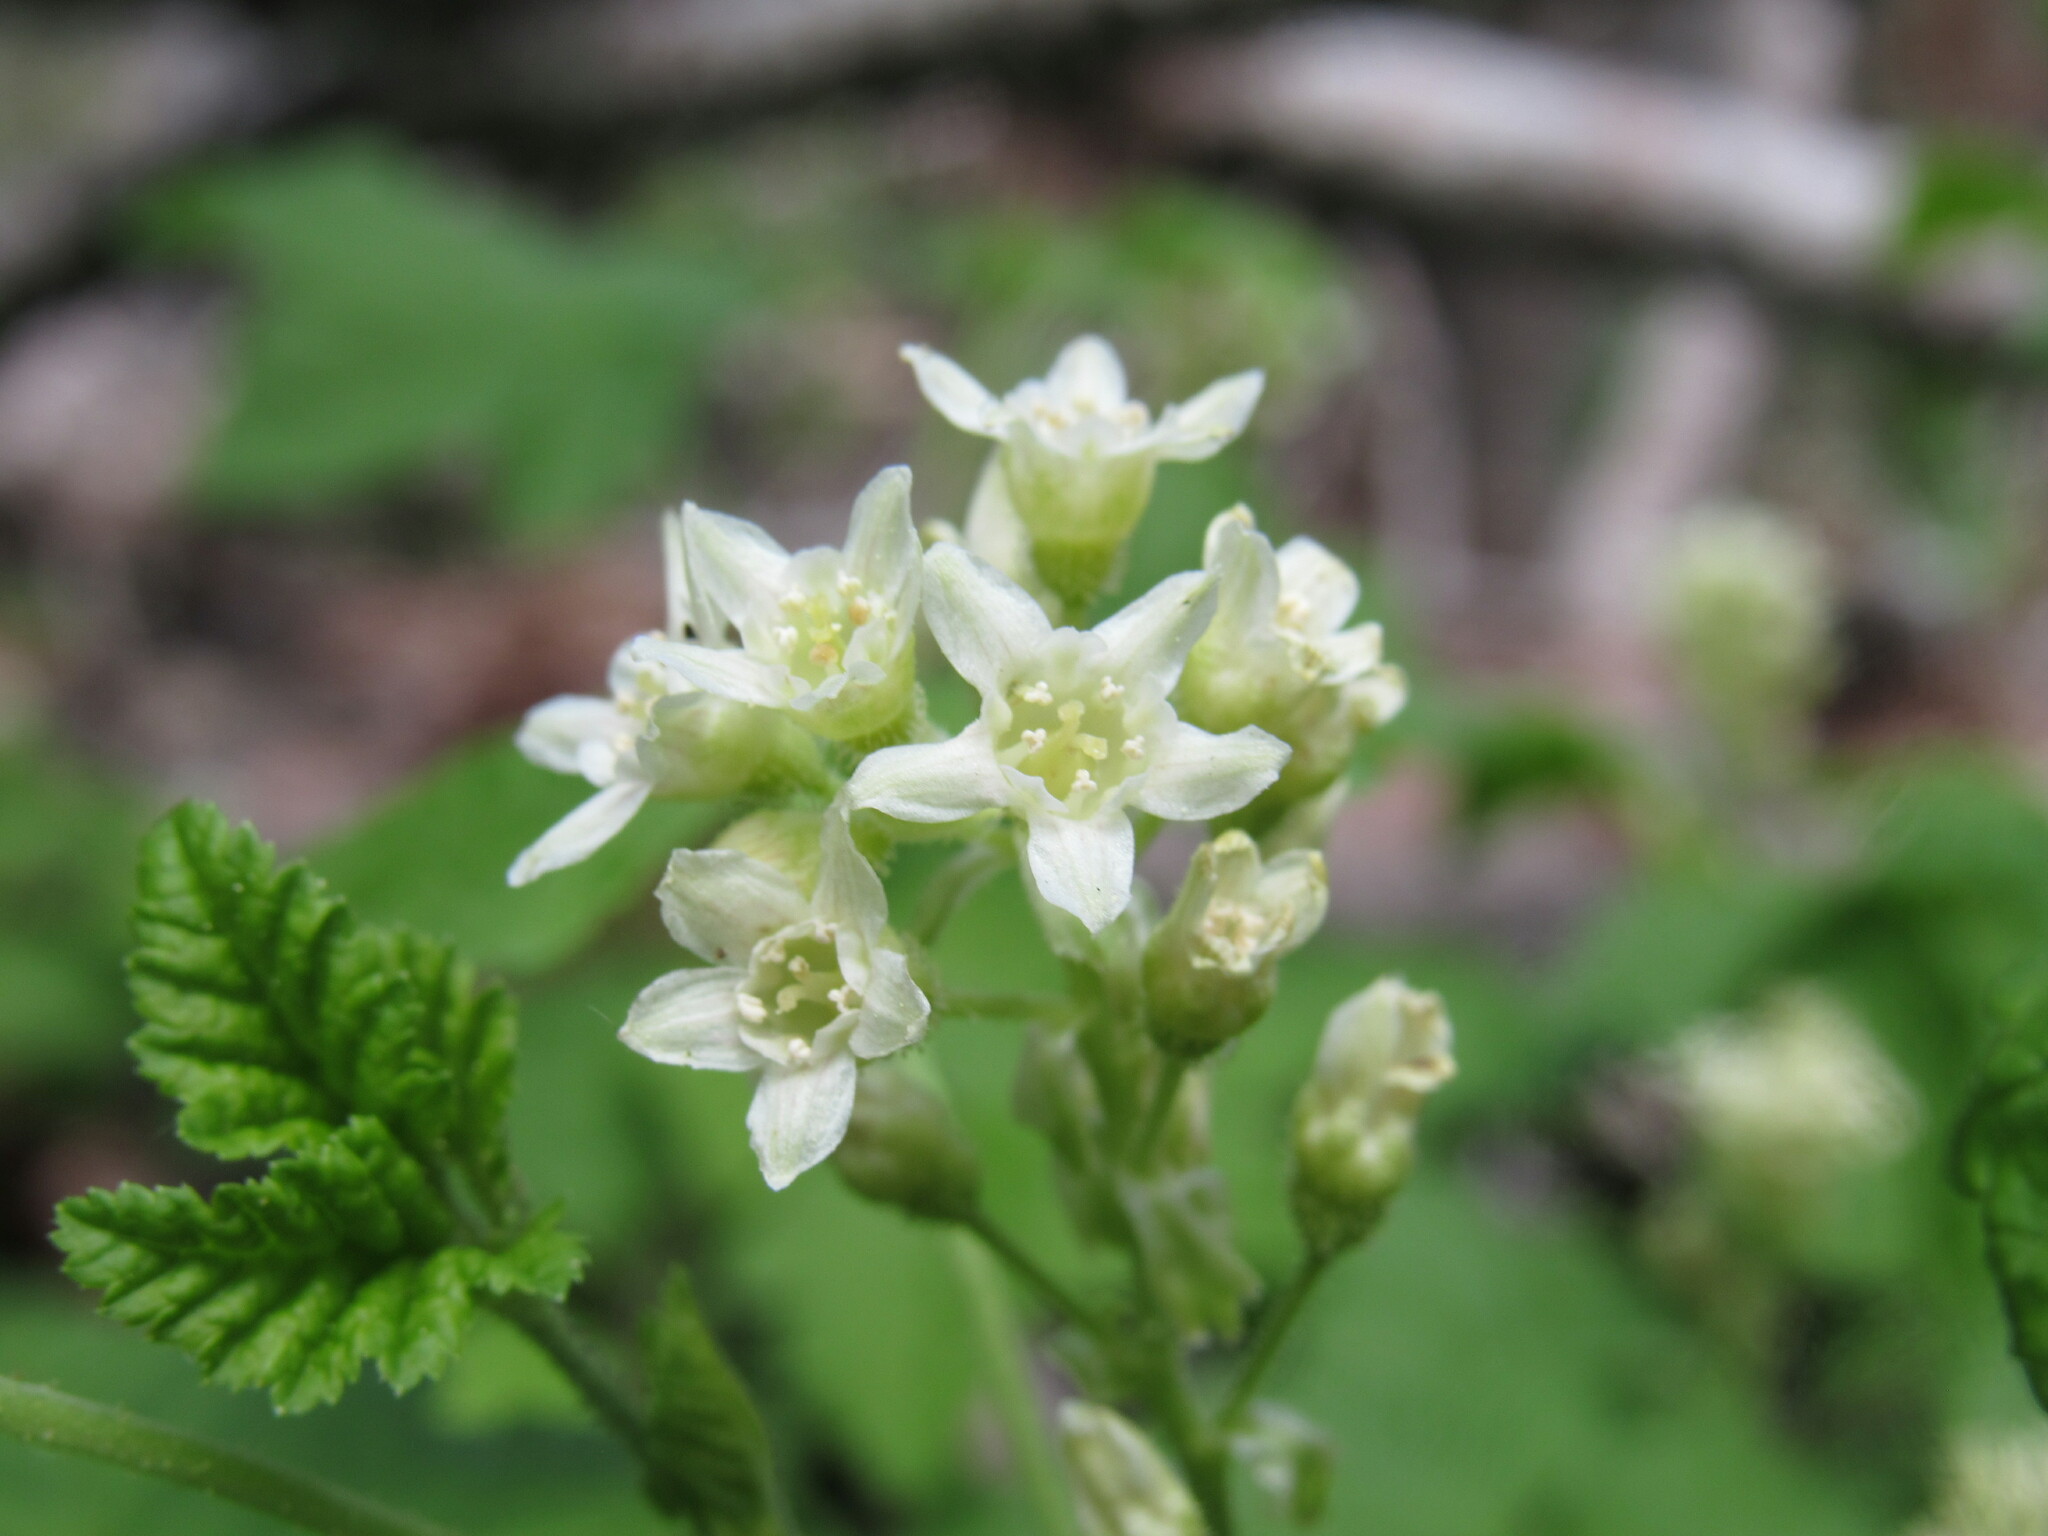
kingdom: Plantae
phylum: Tracheophyta
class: Magnoliopsida
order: Saxifragales
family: Grossulariaceae
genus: Ribes
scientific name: Ribes wolfii
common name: Rothrock currant
